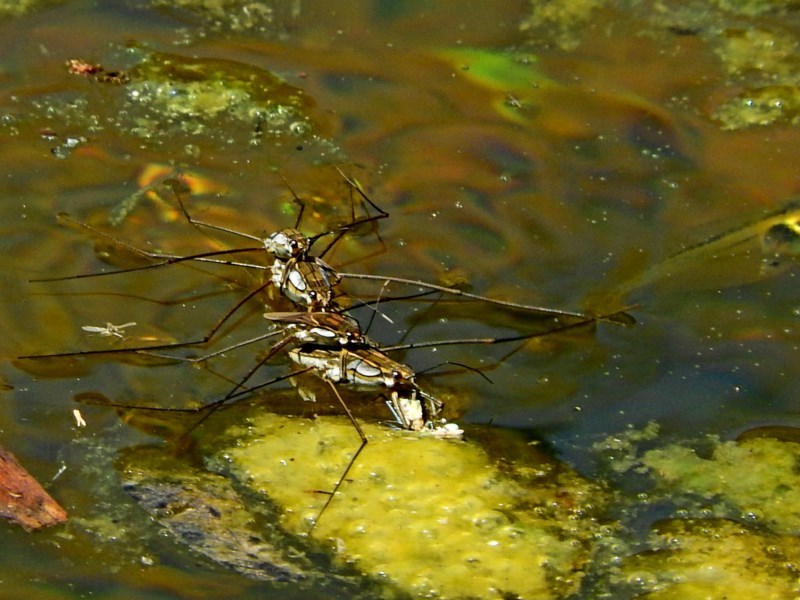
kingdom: Animalia
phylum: Arthropoda
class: Insecta
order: Hemiptera
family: Gerridae
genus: Tenagogerris
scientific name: Tenagogerris euphrosyne
